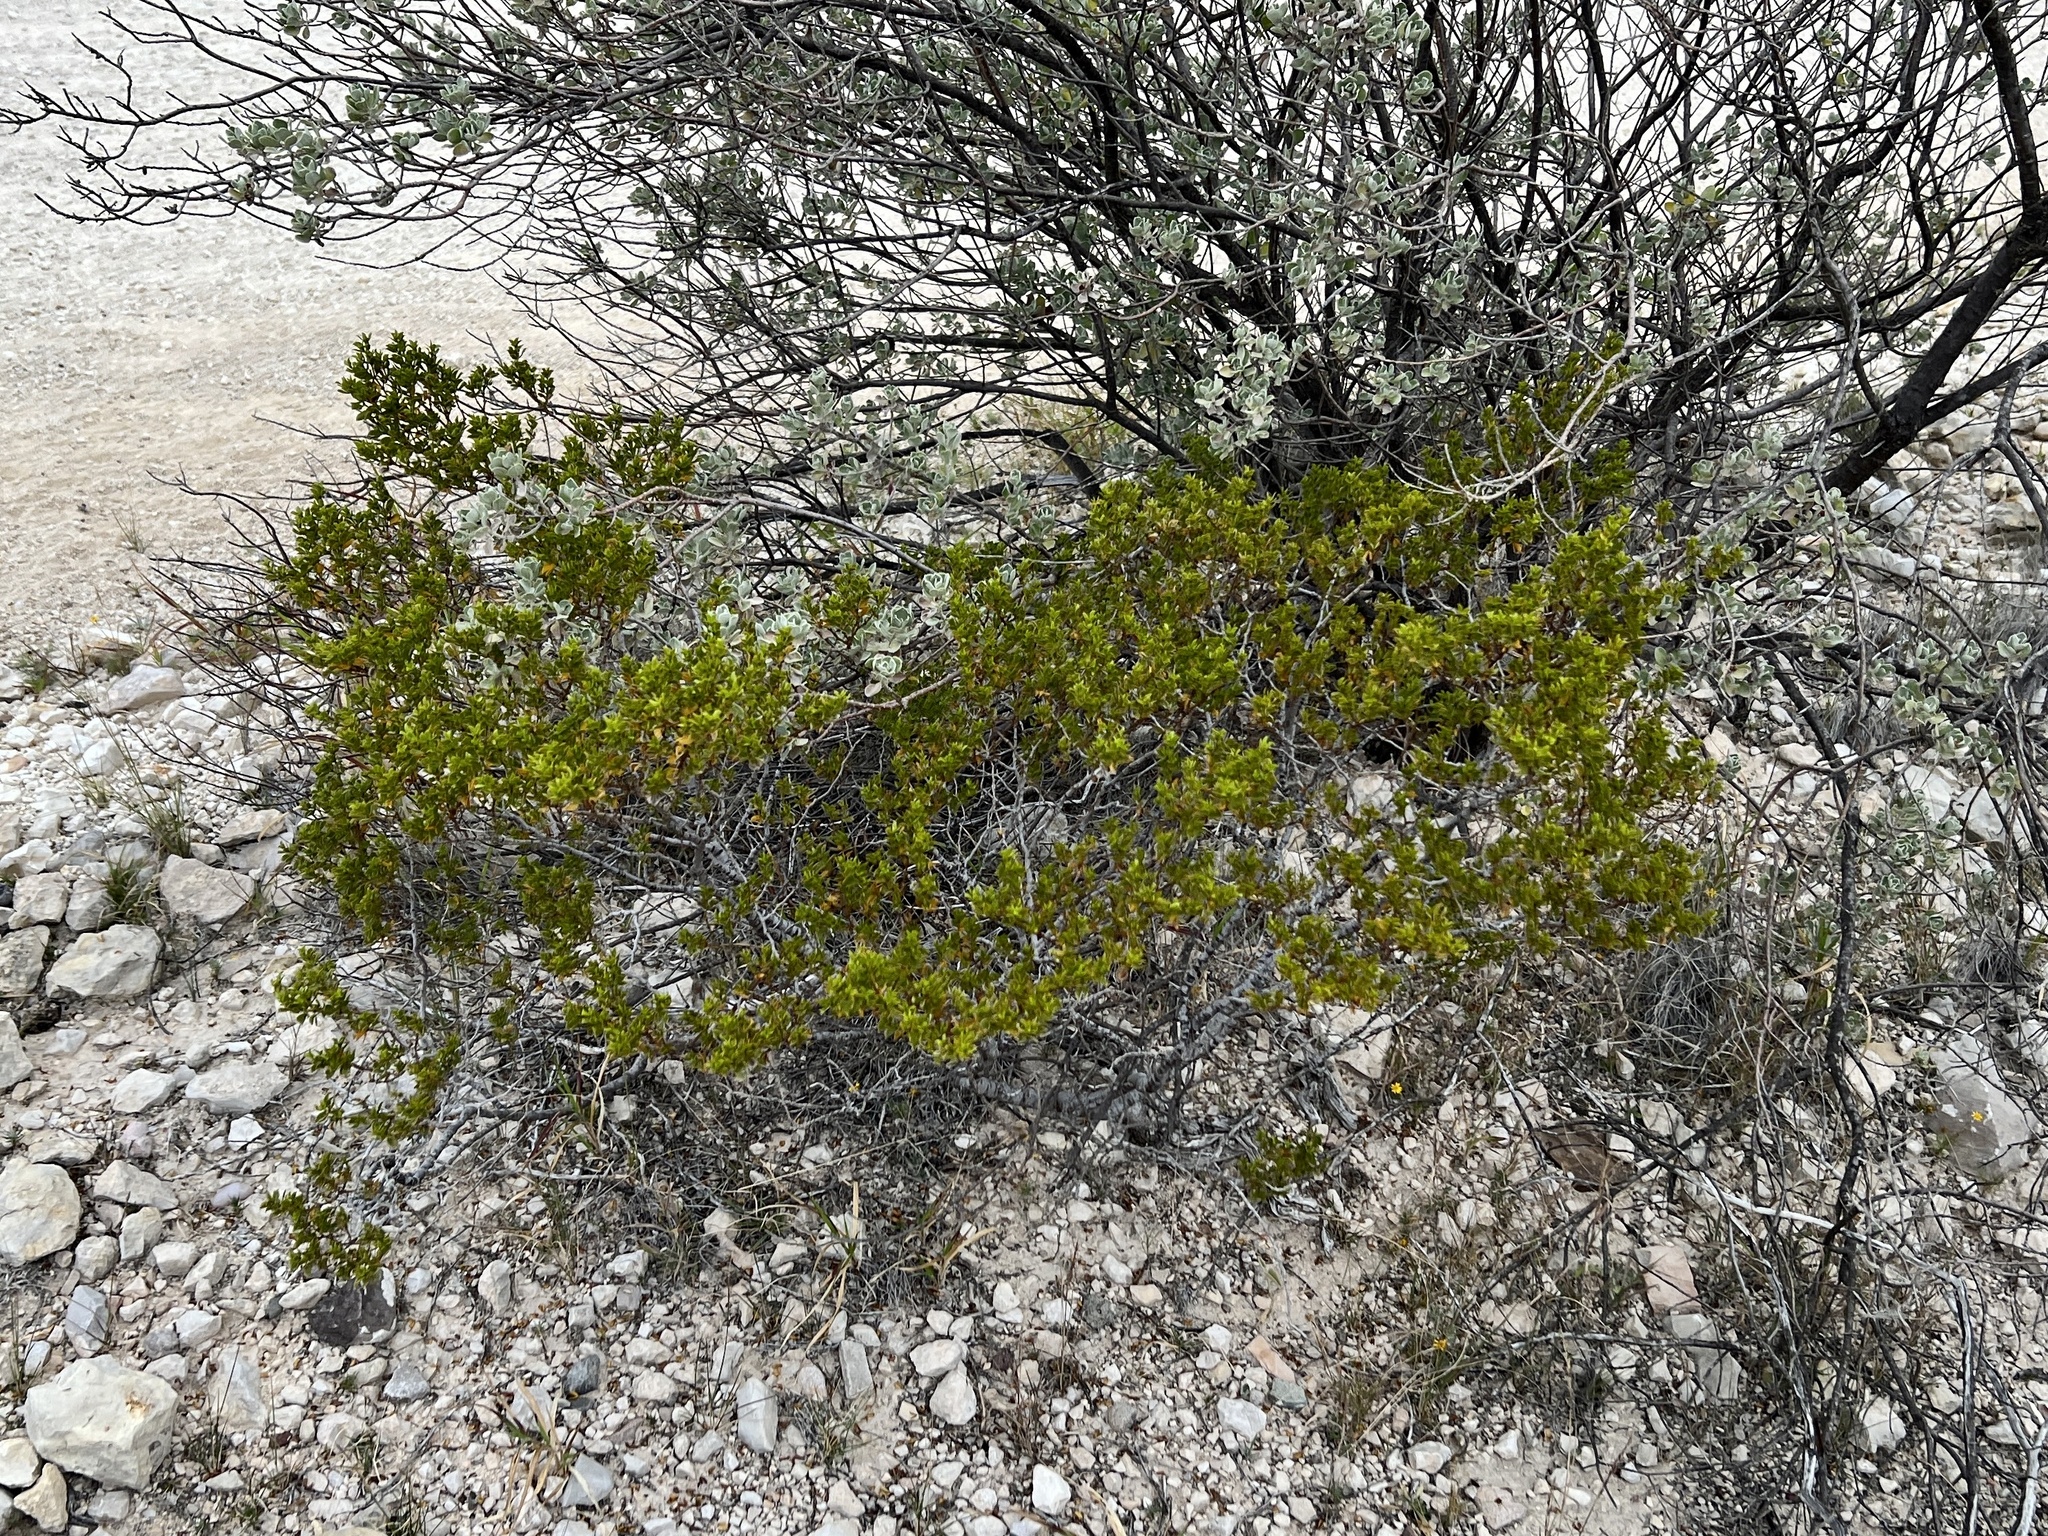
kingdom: Plantae
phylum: Tracheophyta
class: Magnoliopsida
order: Zygophyllales
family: Zygophyllaceae
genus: Larrea
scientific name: Larrea tridentata
